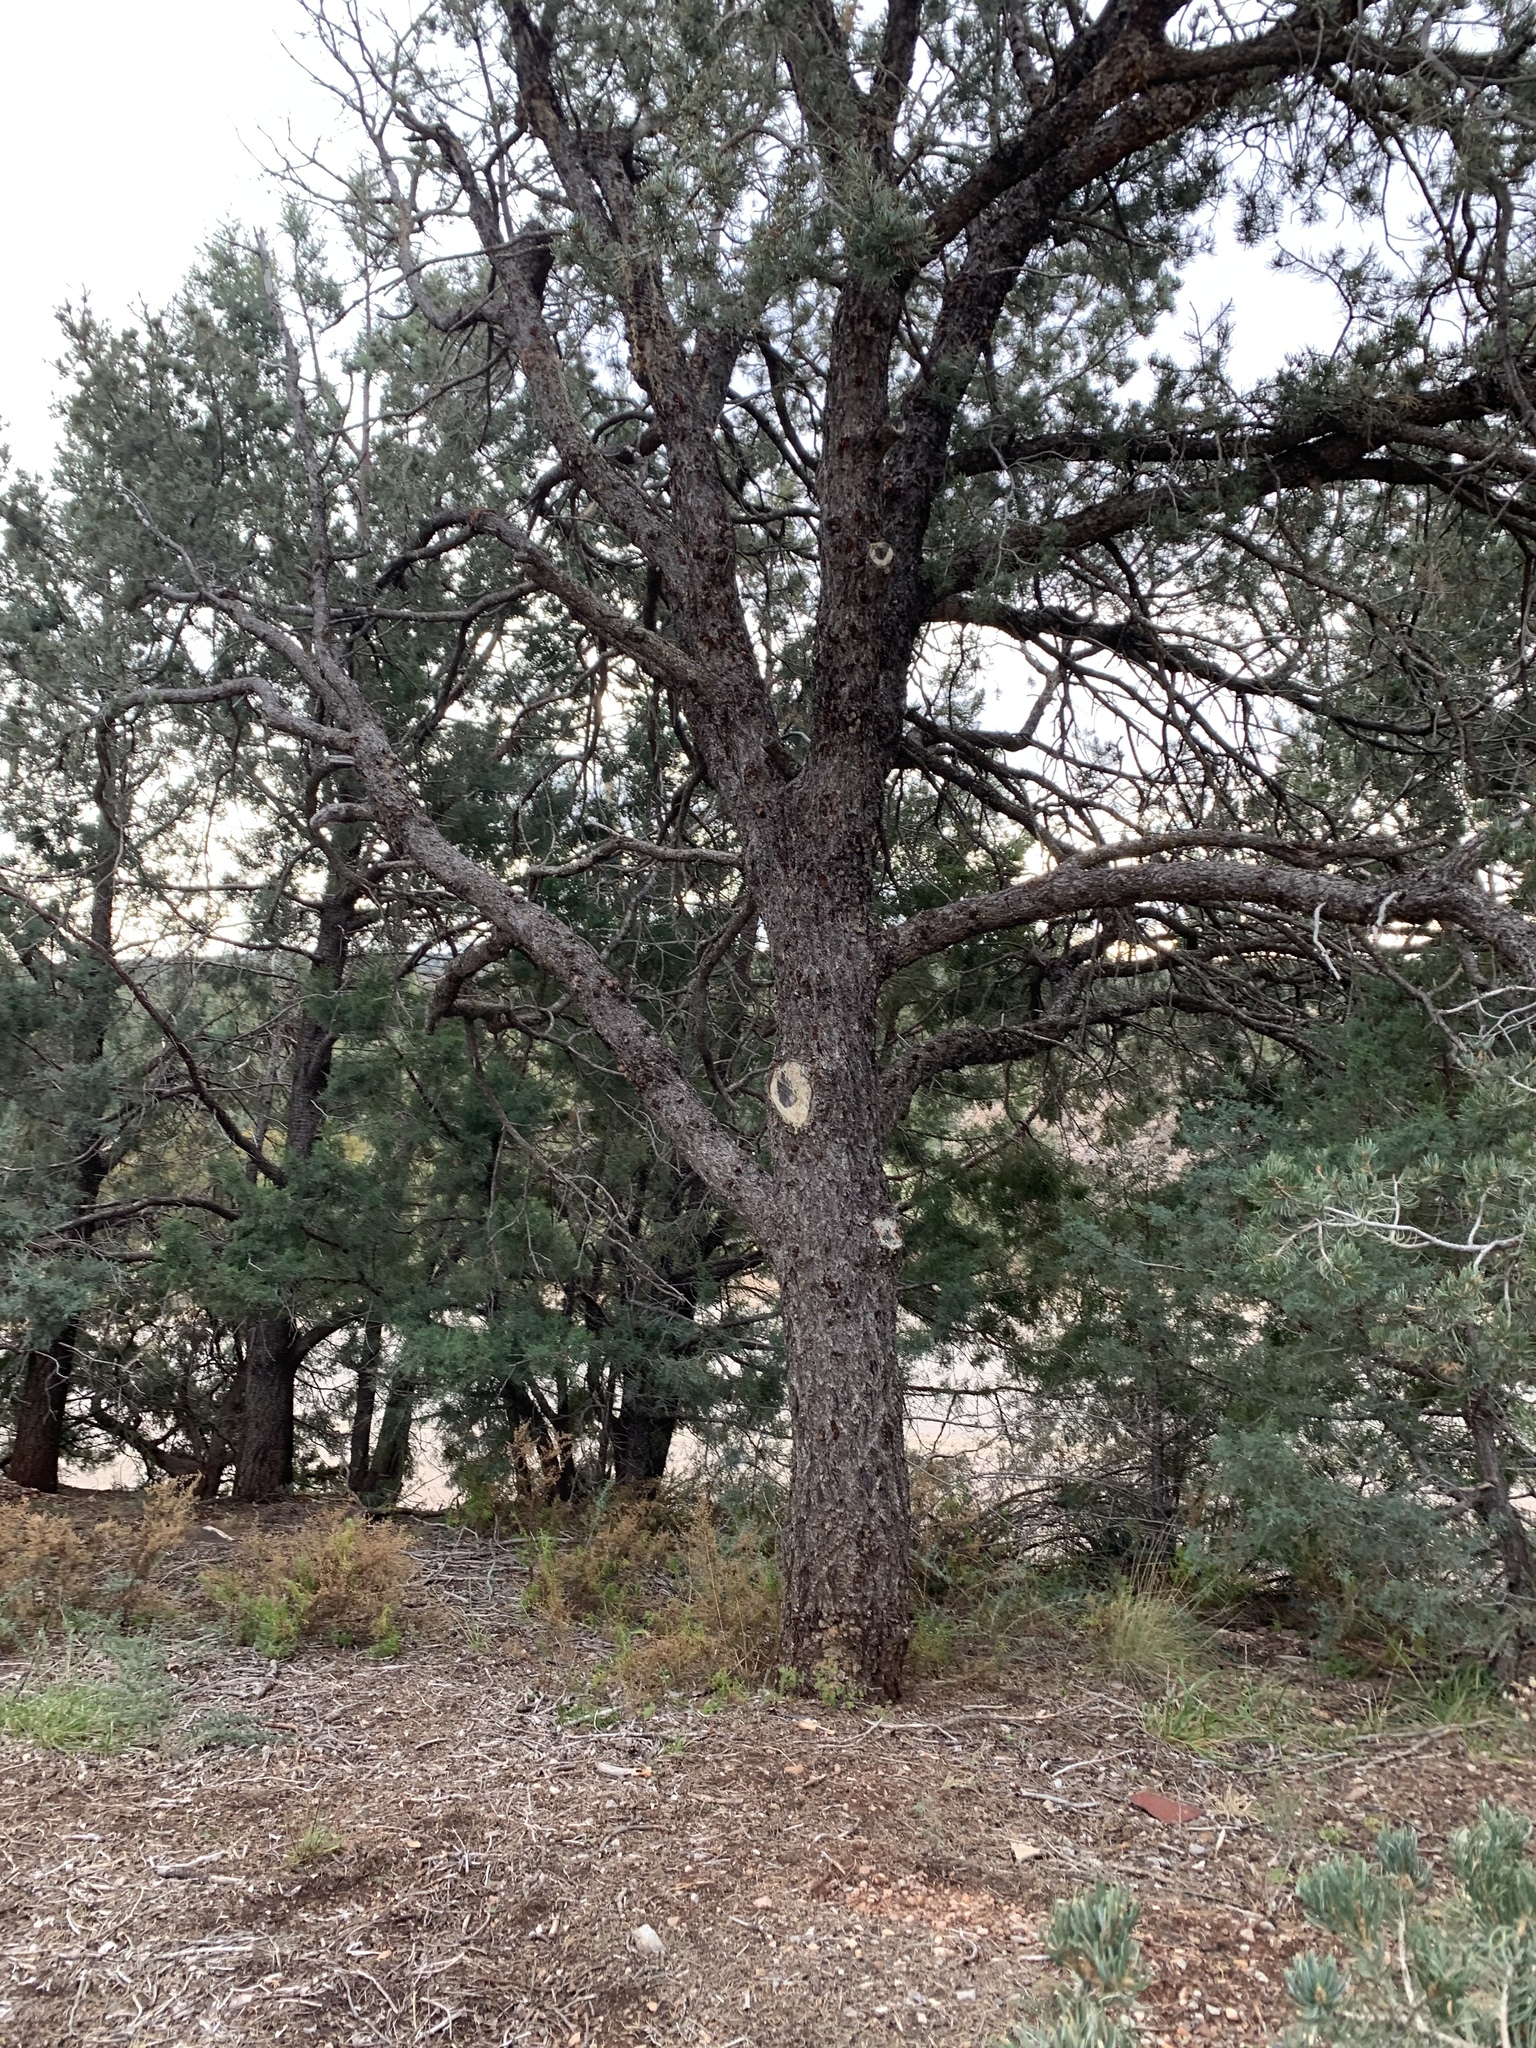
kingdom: Plantae
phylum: Tracheophyta
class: Pinopsida
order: Pinales
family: Cupressaceae
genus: Juniperus
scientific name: Juniperus deppeana
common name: Alligator juniper
